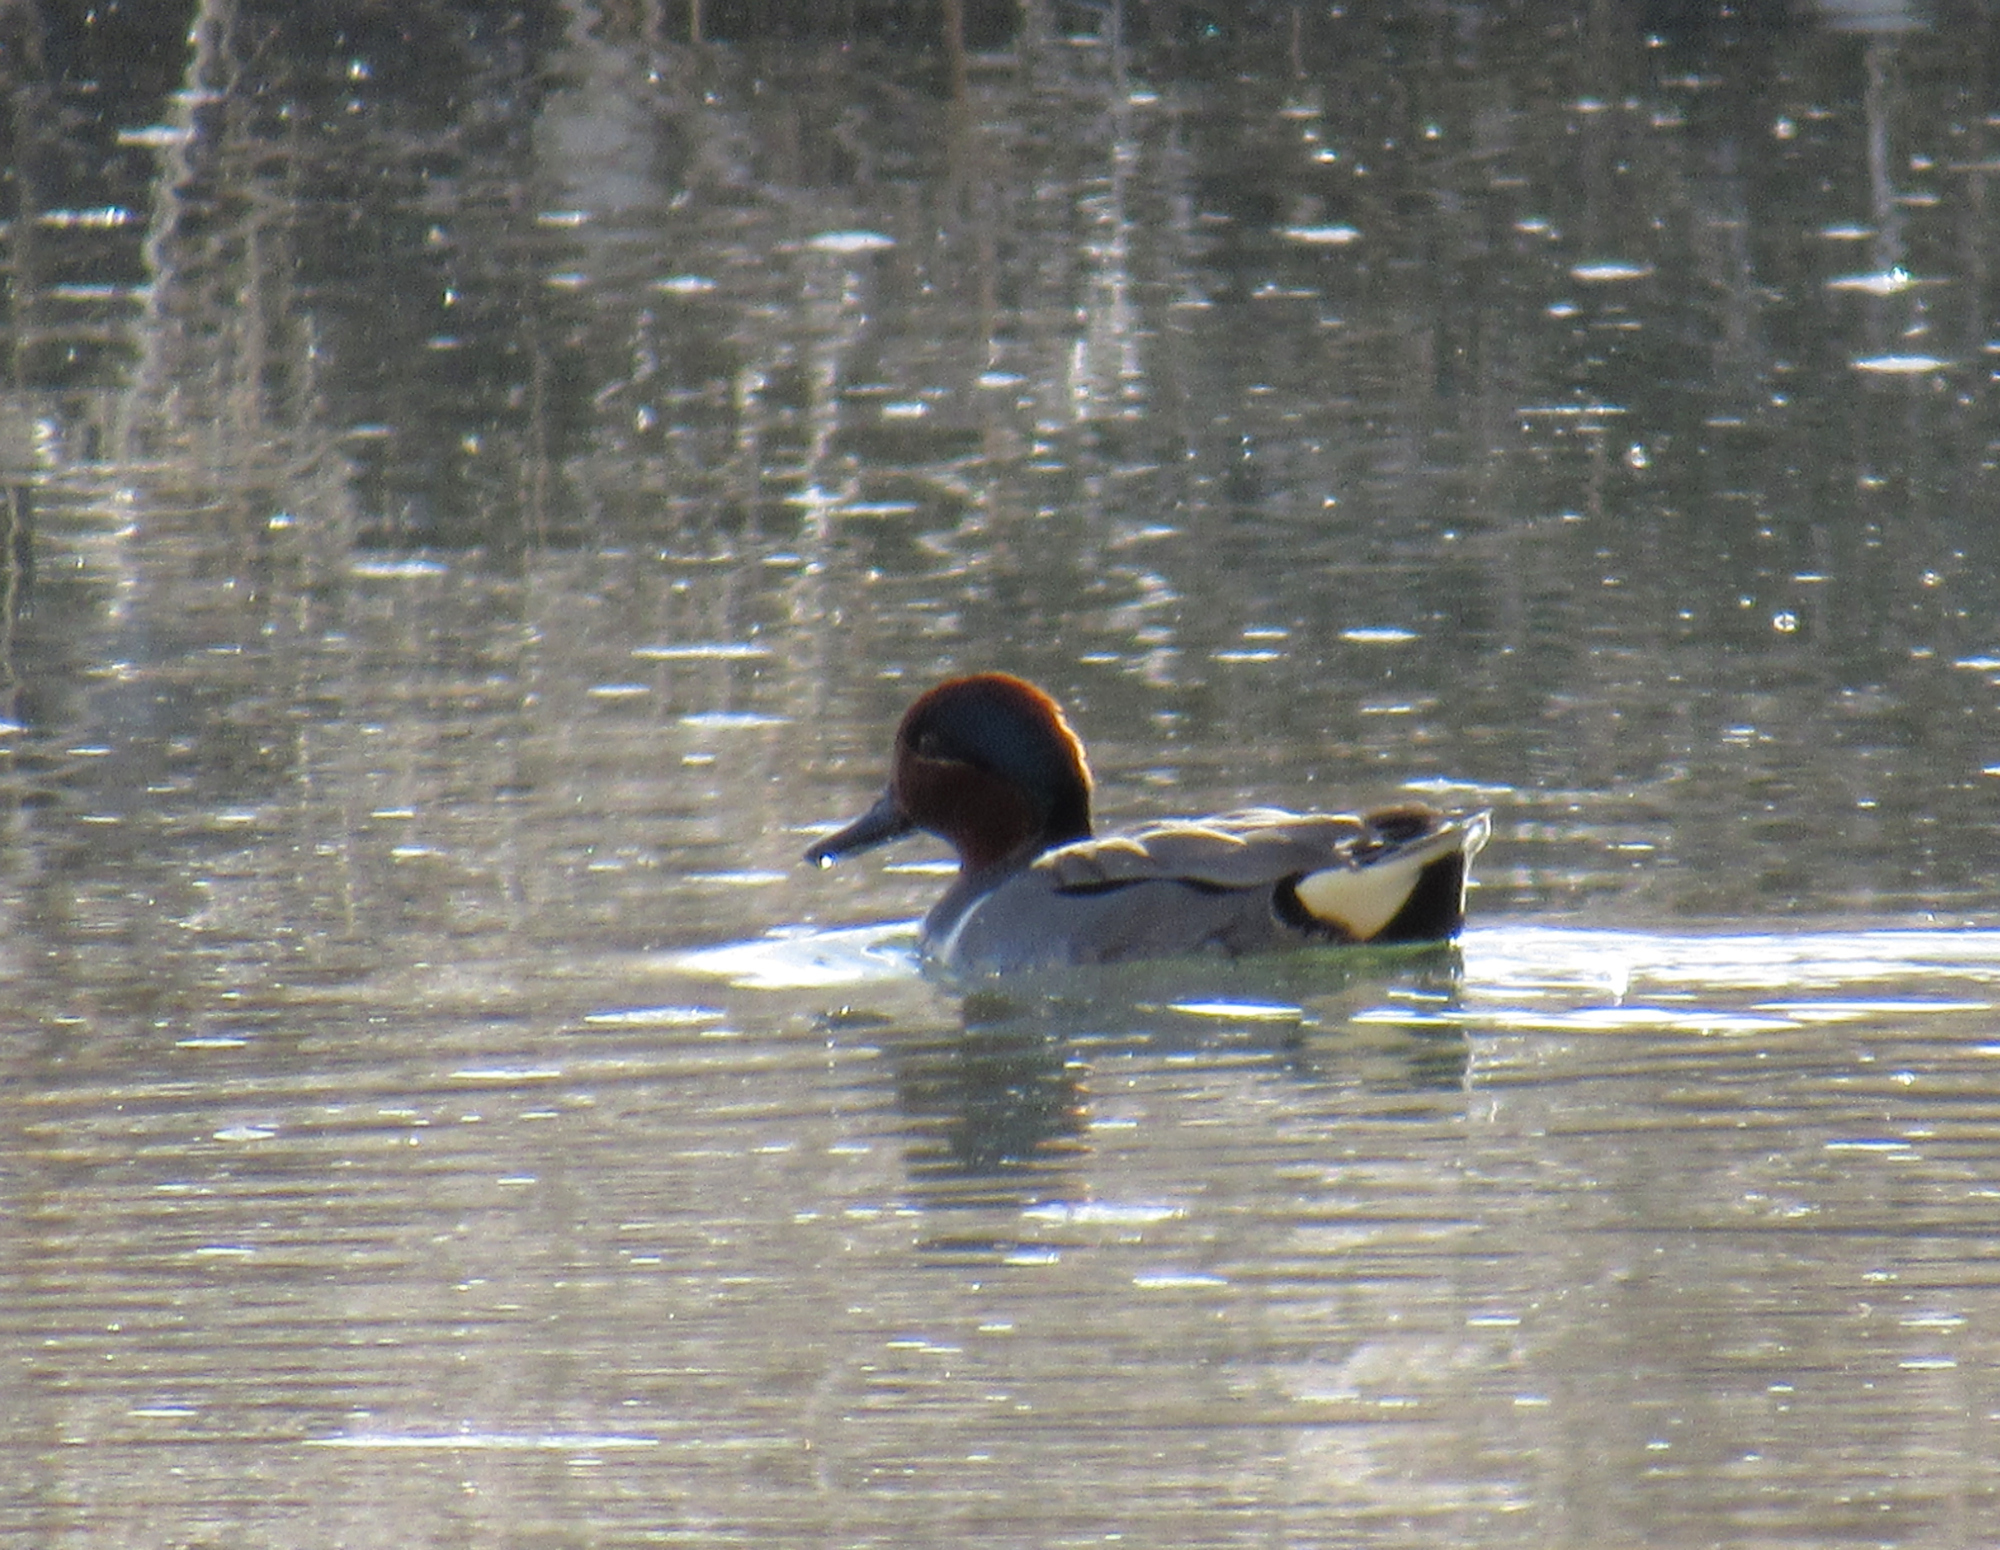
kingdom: Animalia
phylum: Chordata
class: Aves
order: Anseriformes
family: Anatidae
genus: Anas
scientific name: Anas crecca
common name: Eurasian teal
